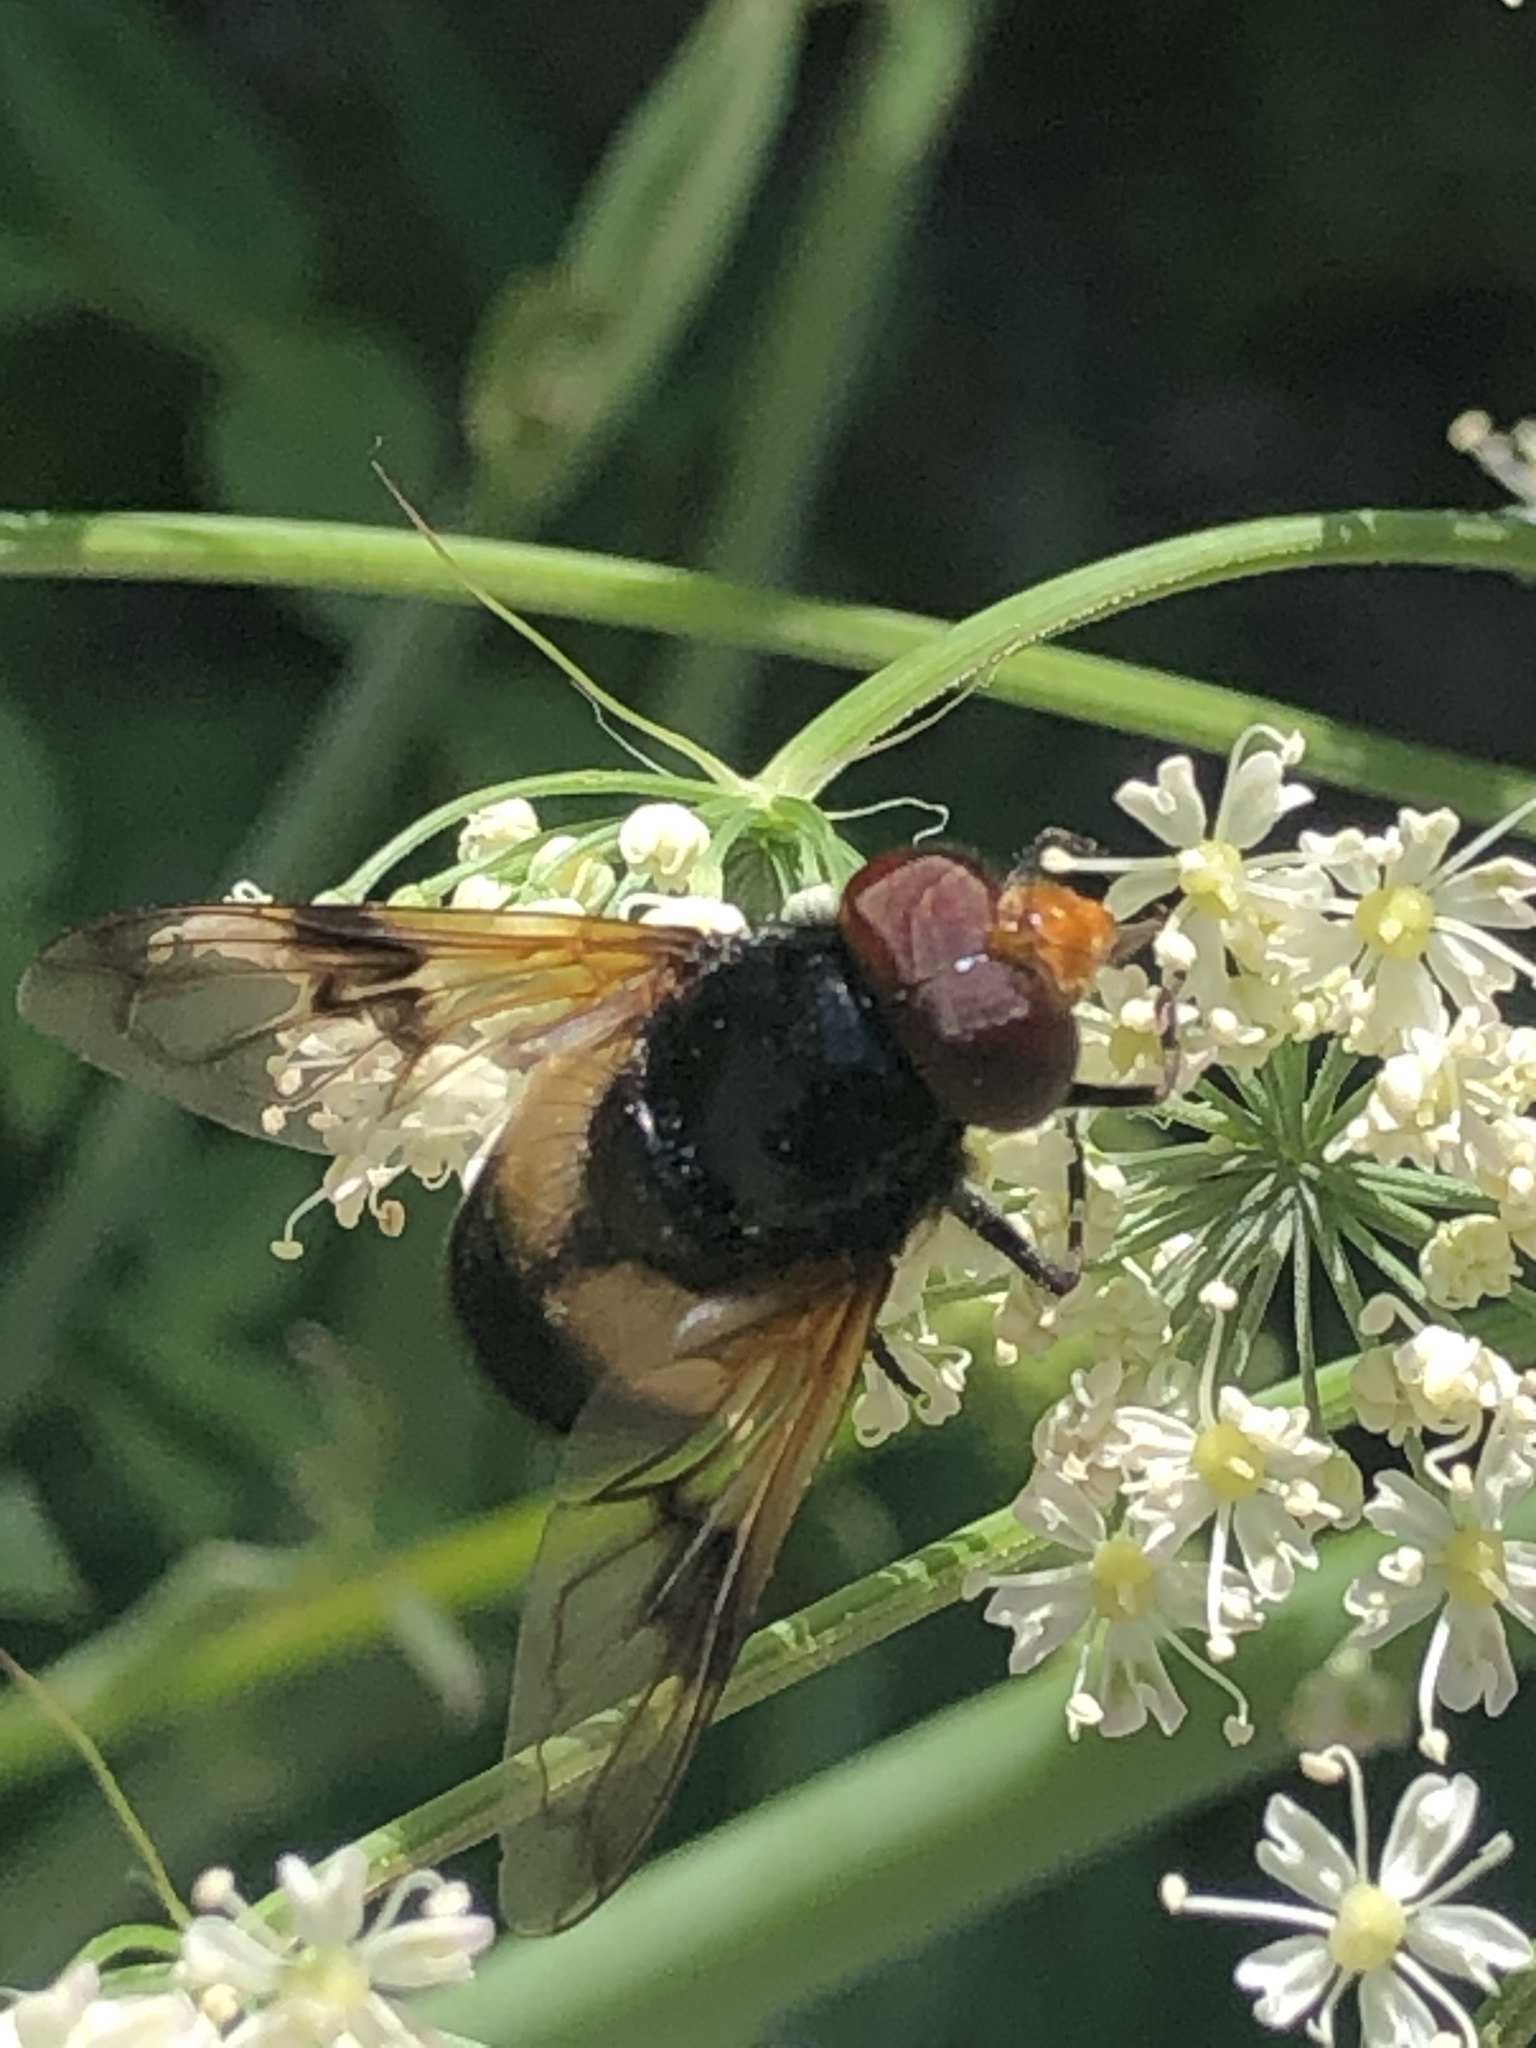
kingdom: Animalia
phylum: Arthropoda
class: Insecta
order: Diptera
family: Syrphidae
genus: Volucella
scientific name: Volucella pellucens
